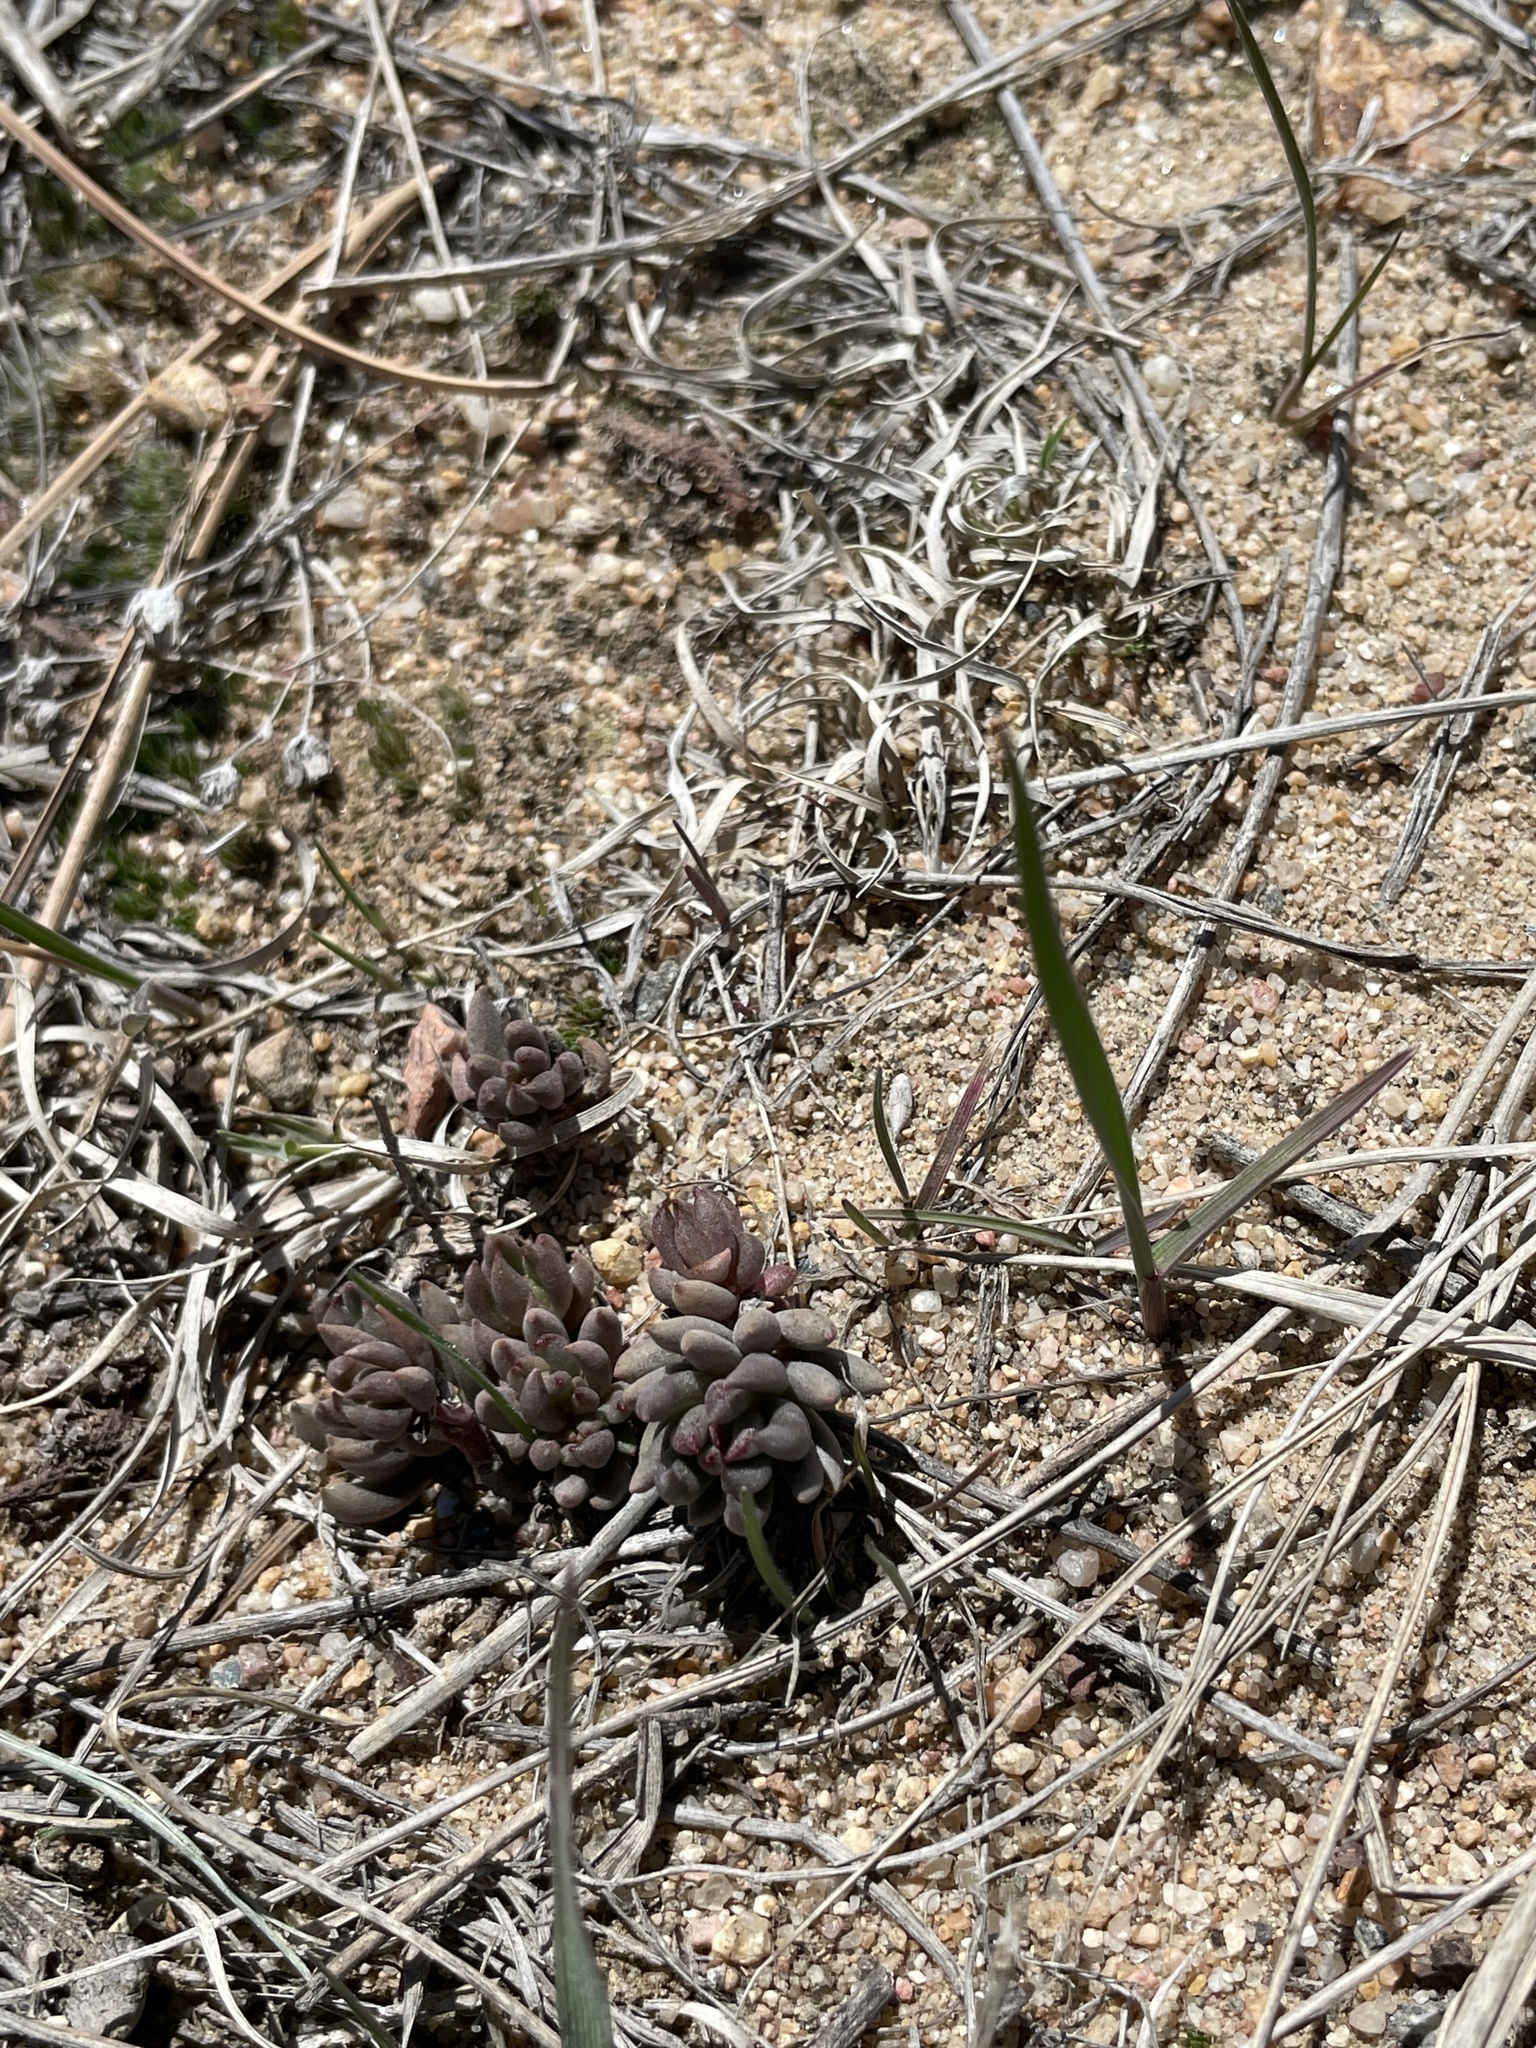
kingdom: Plantae
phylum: Tracheophyta
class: Magnoliopsida
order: Saxifragales
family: Crassulaceae
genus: Sedum
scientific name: Sedum lanceolatum
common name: Common stonecrop
